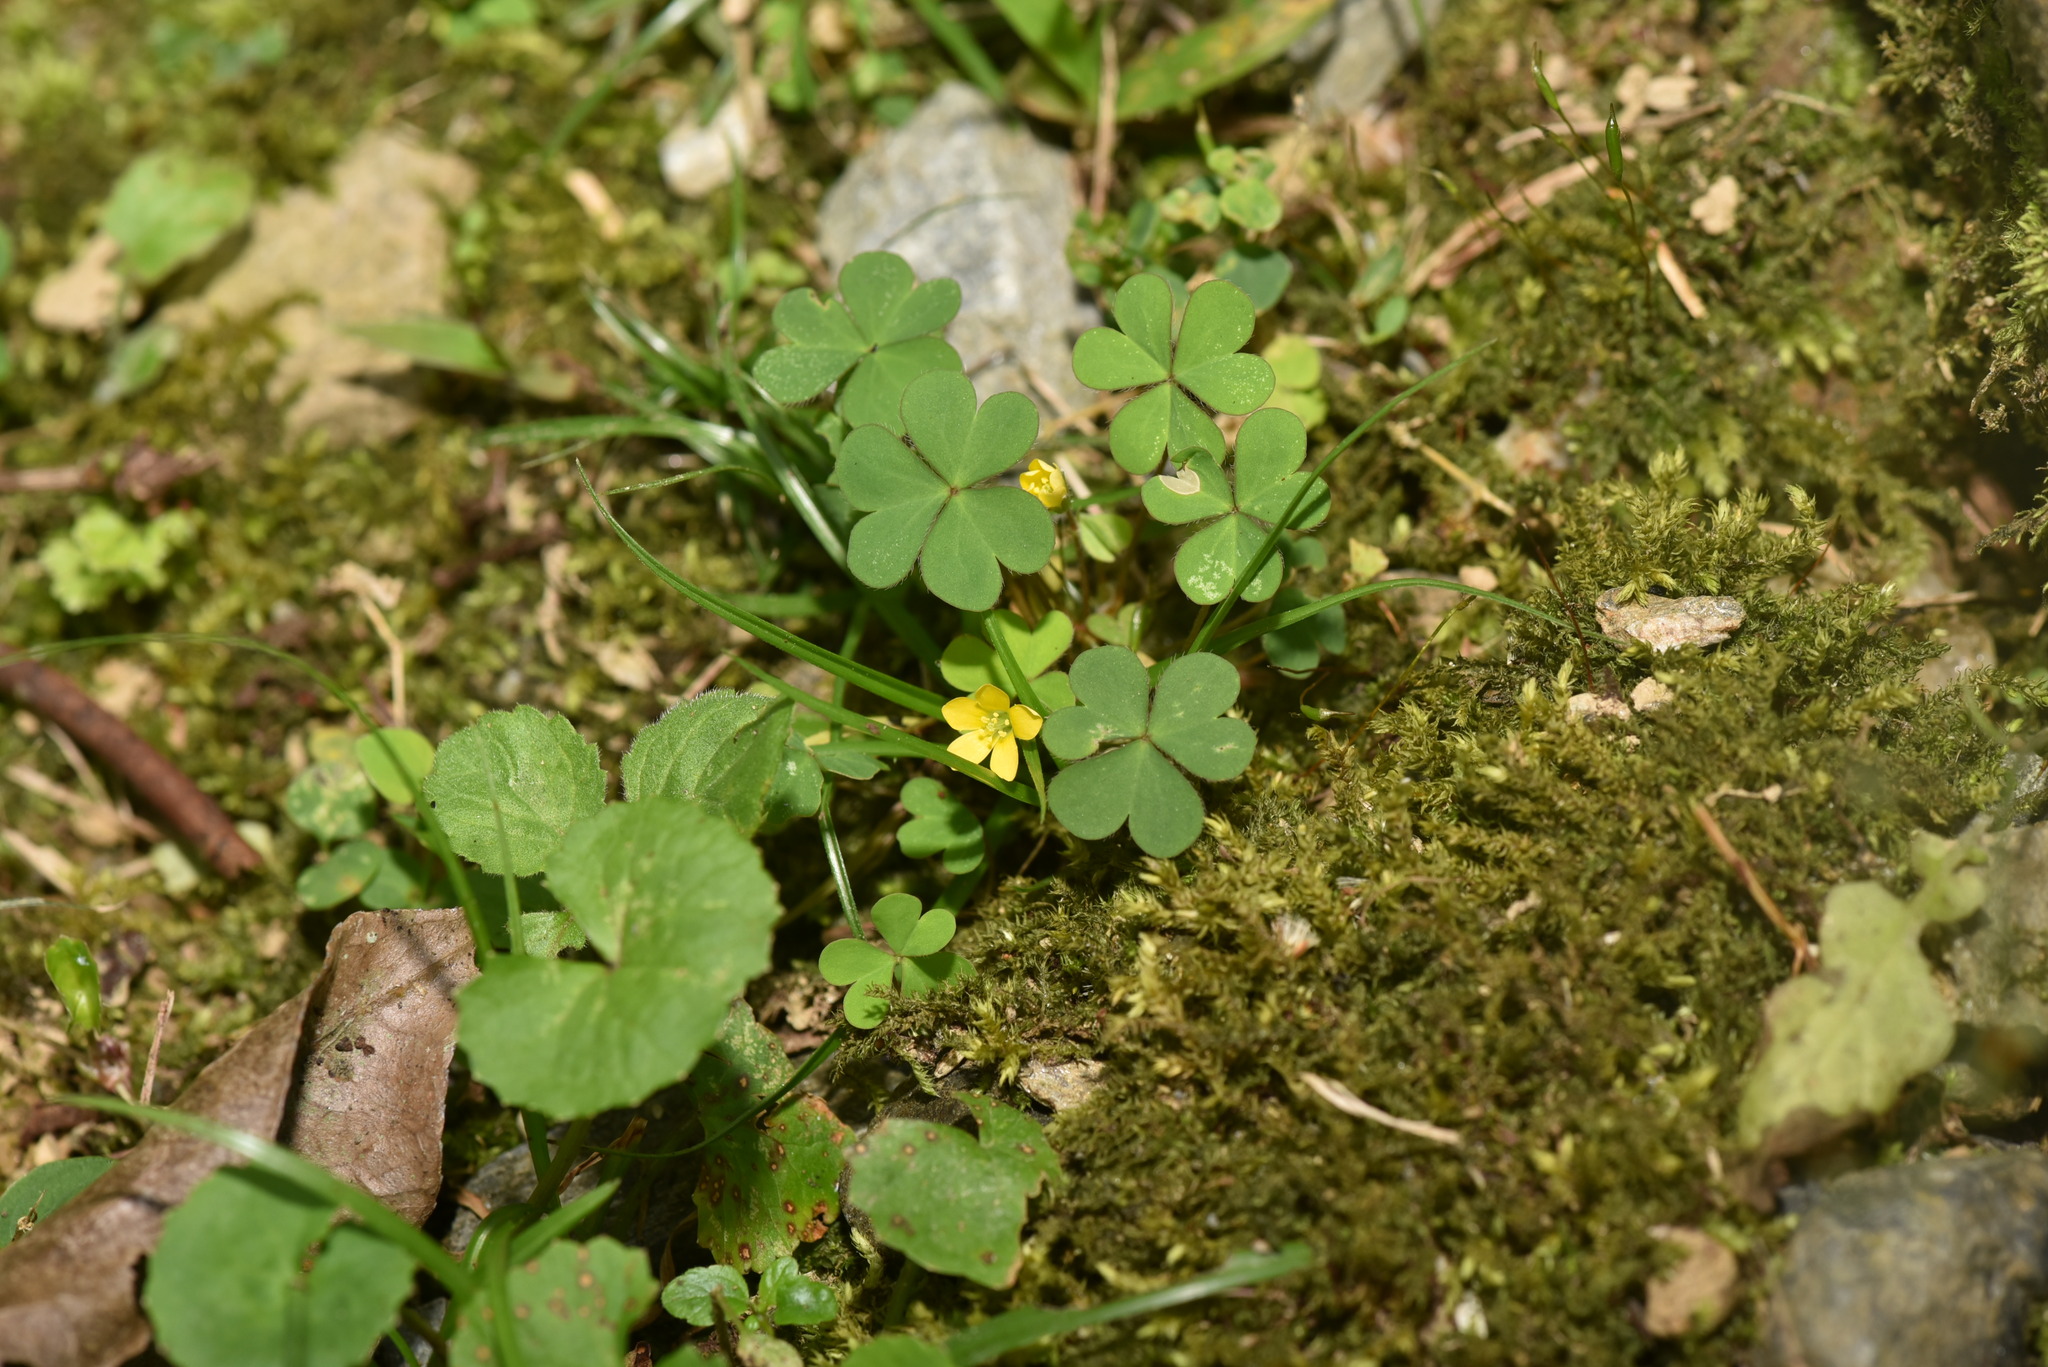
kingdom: Plantae
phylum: Tracheophyta
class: Magnoliopsida
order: Oxalidales
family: Oxalidaceae
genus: Oxalis
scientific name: Oxalis corniculata
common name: Procumbent yellow-sorrel
